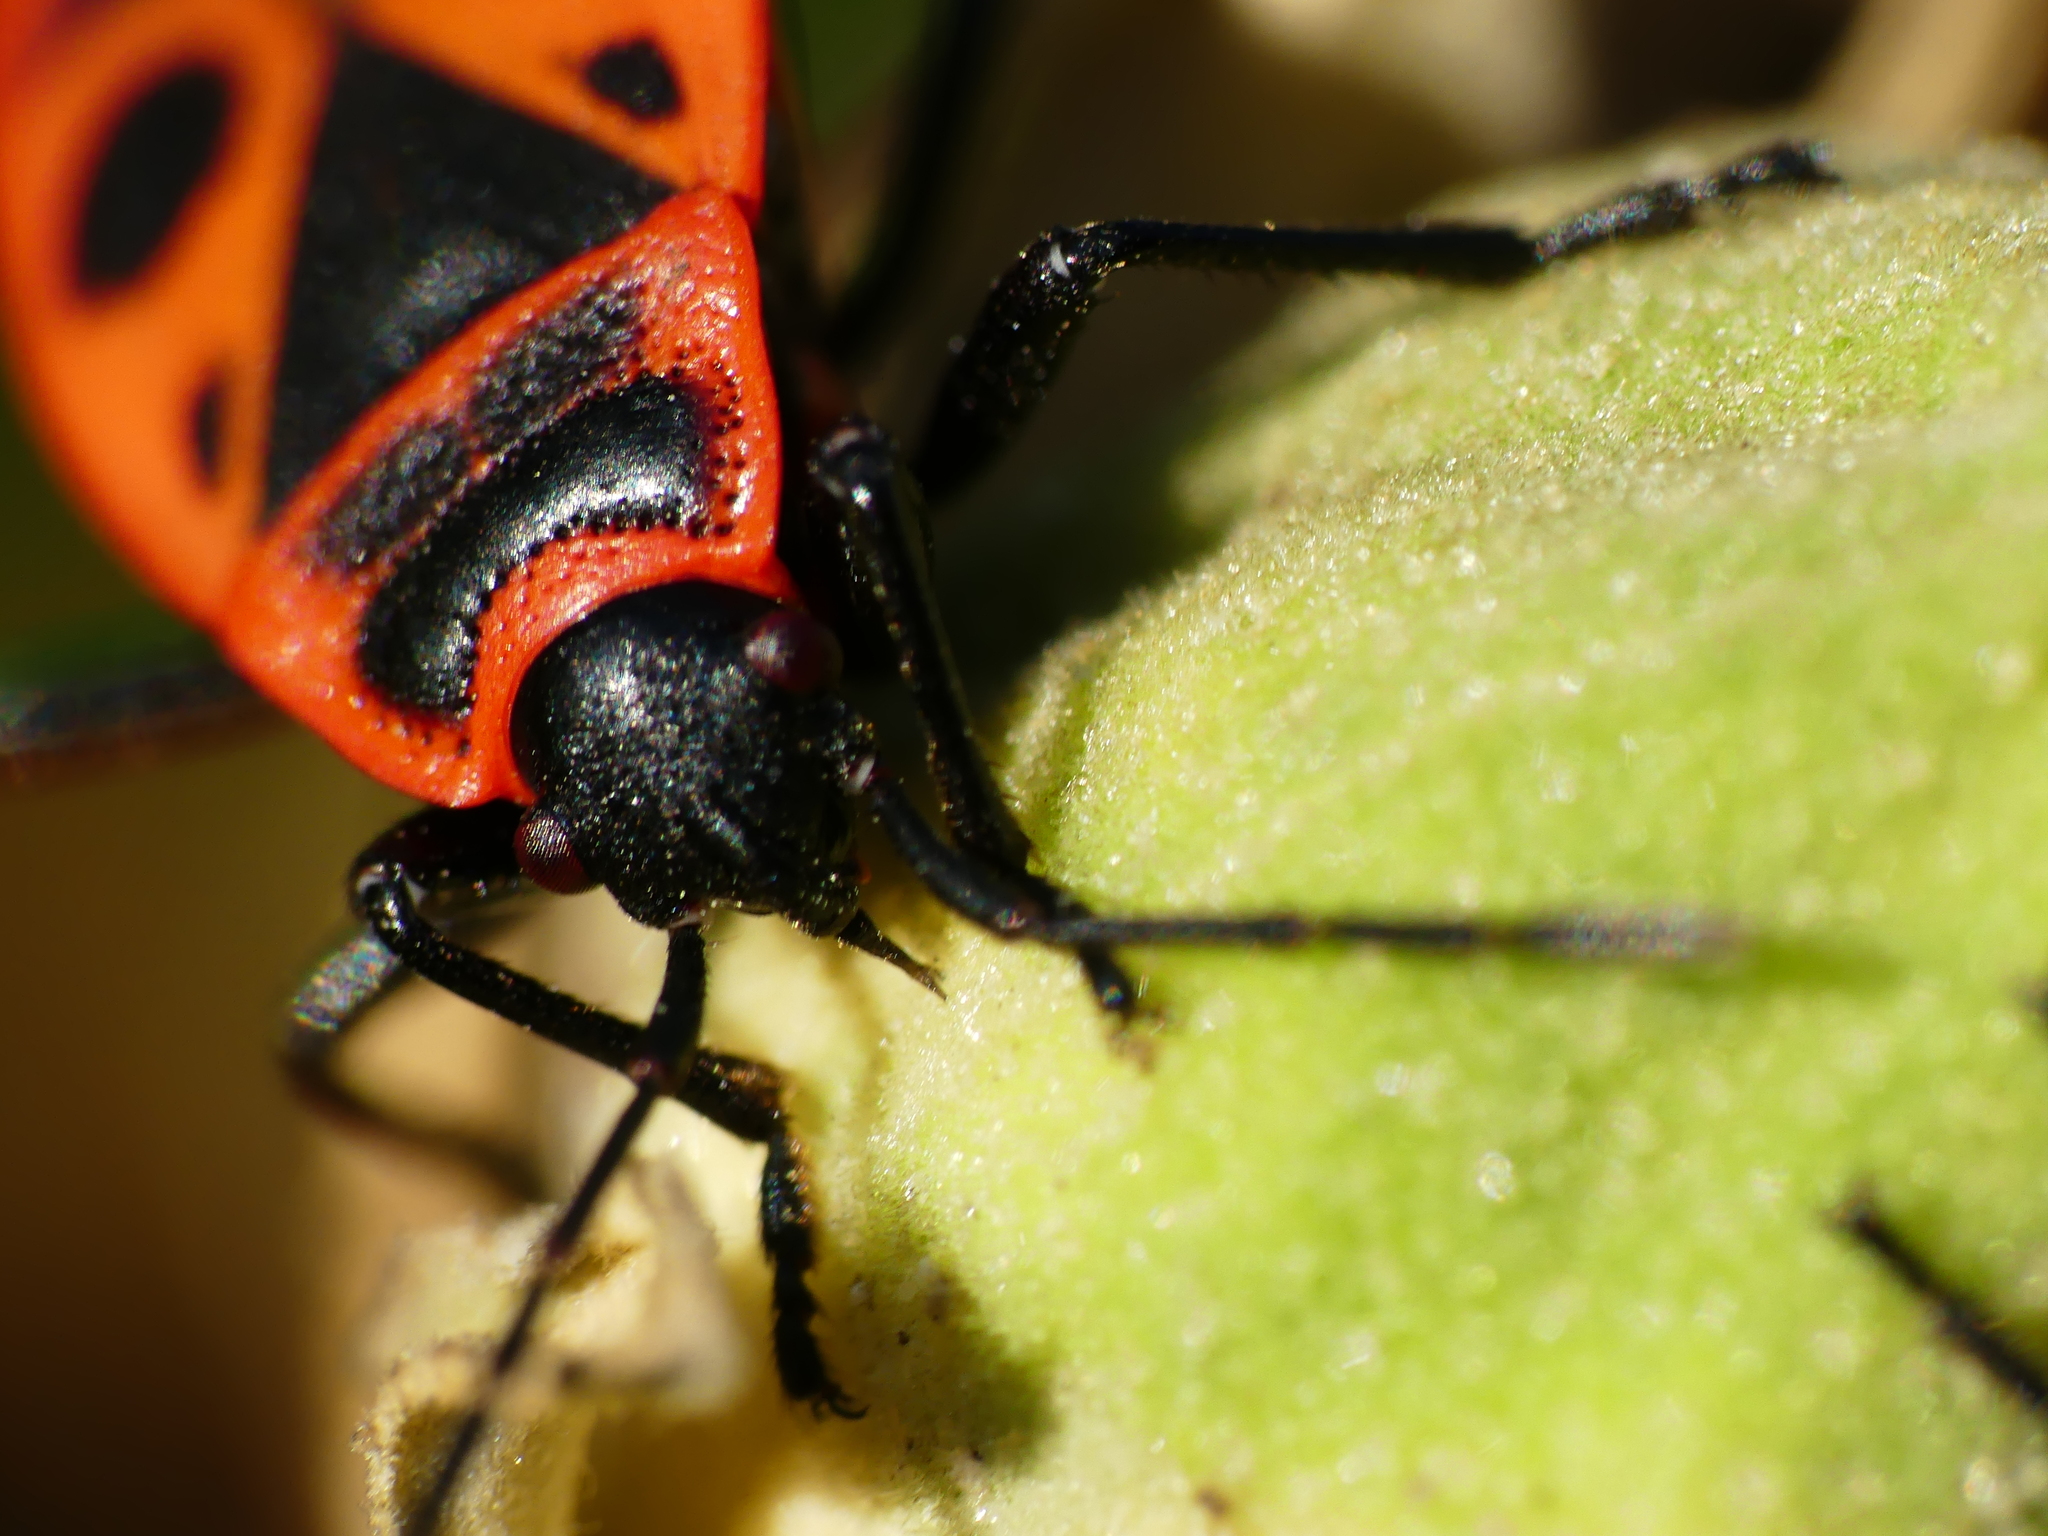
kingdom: Animalia
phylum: Arthropoda
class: Insecta
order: Hemiptera
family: Pyrrhocoridae
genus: Pyrrhocoris
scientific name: Pyrrhocoris apterus
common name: Firebug
